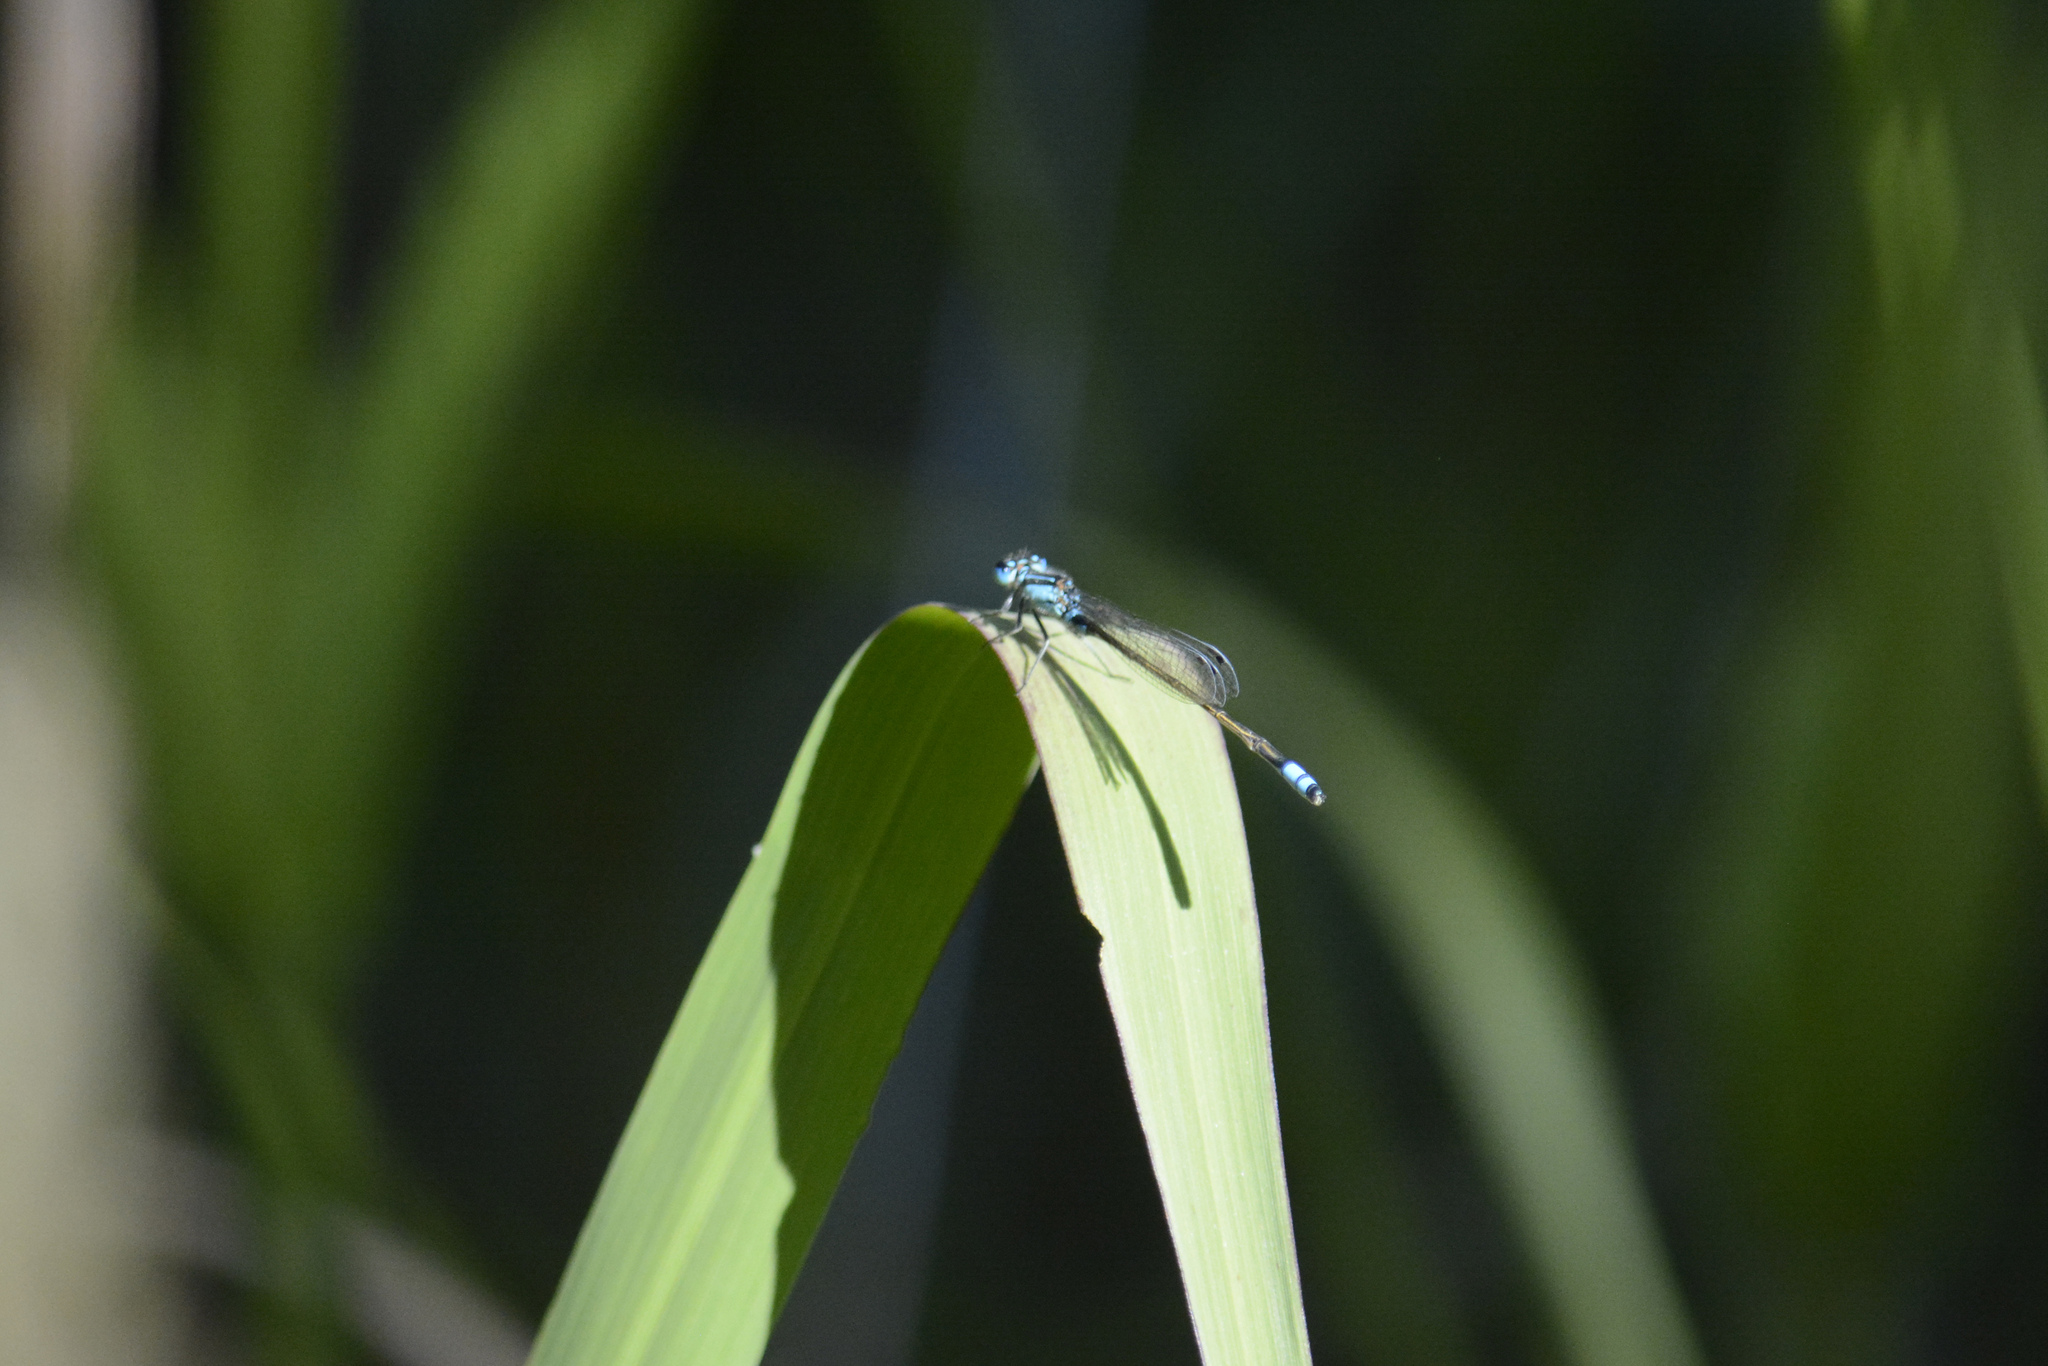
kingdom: Animalia
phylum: Arthropoda
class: Insecta
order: Odonata
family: Coenagrionidae
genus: Ischnura
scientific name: Ischnura heterosticta
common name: Common bluetail
